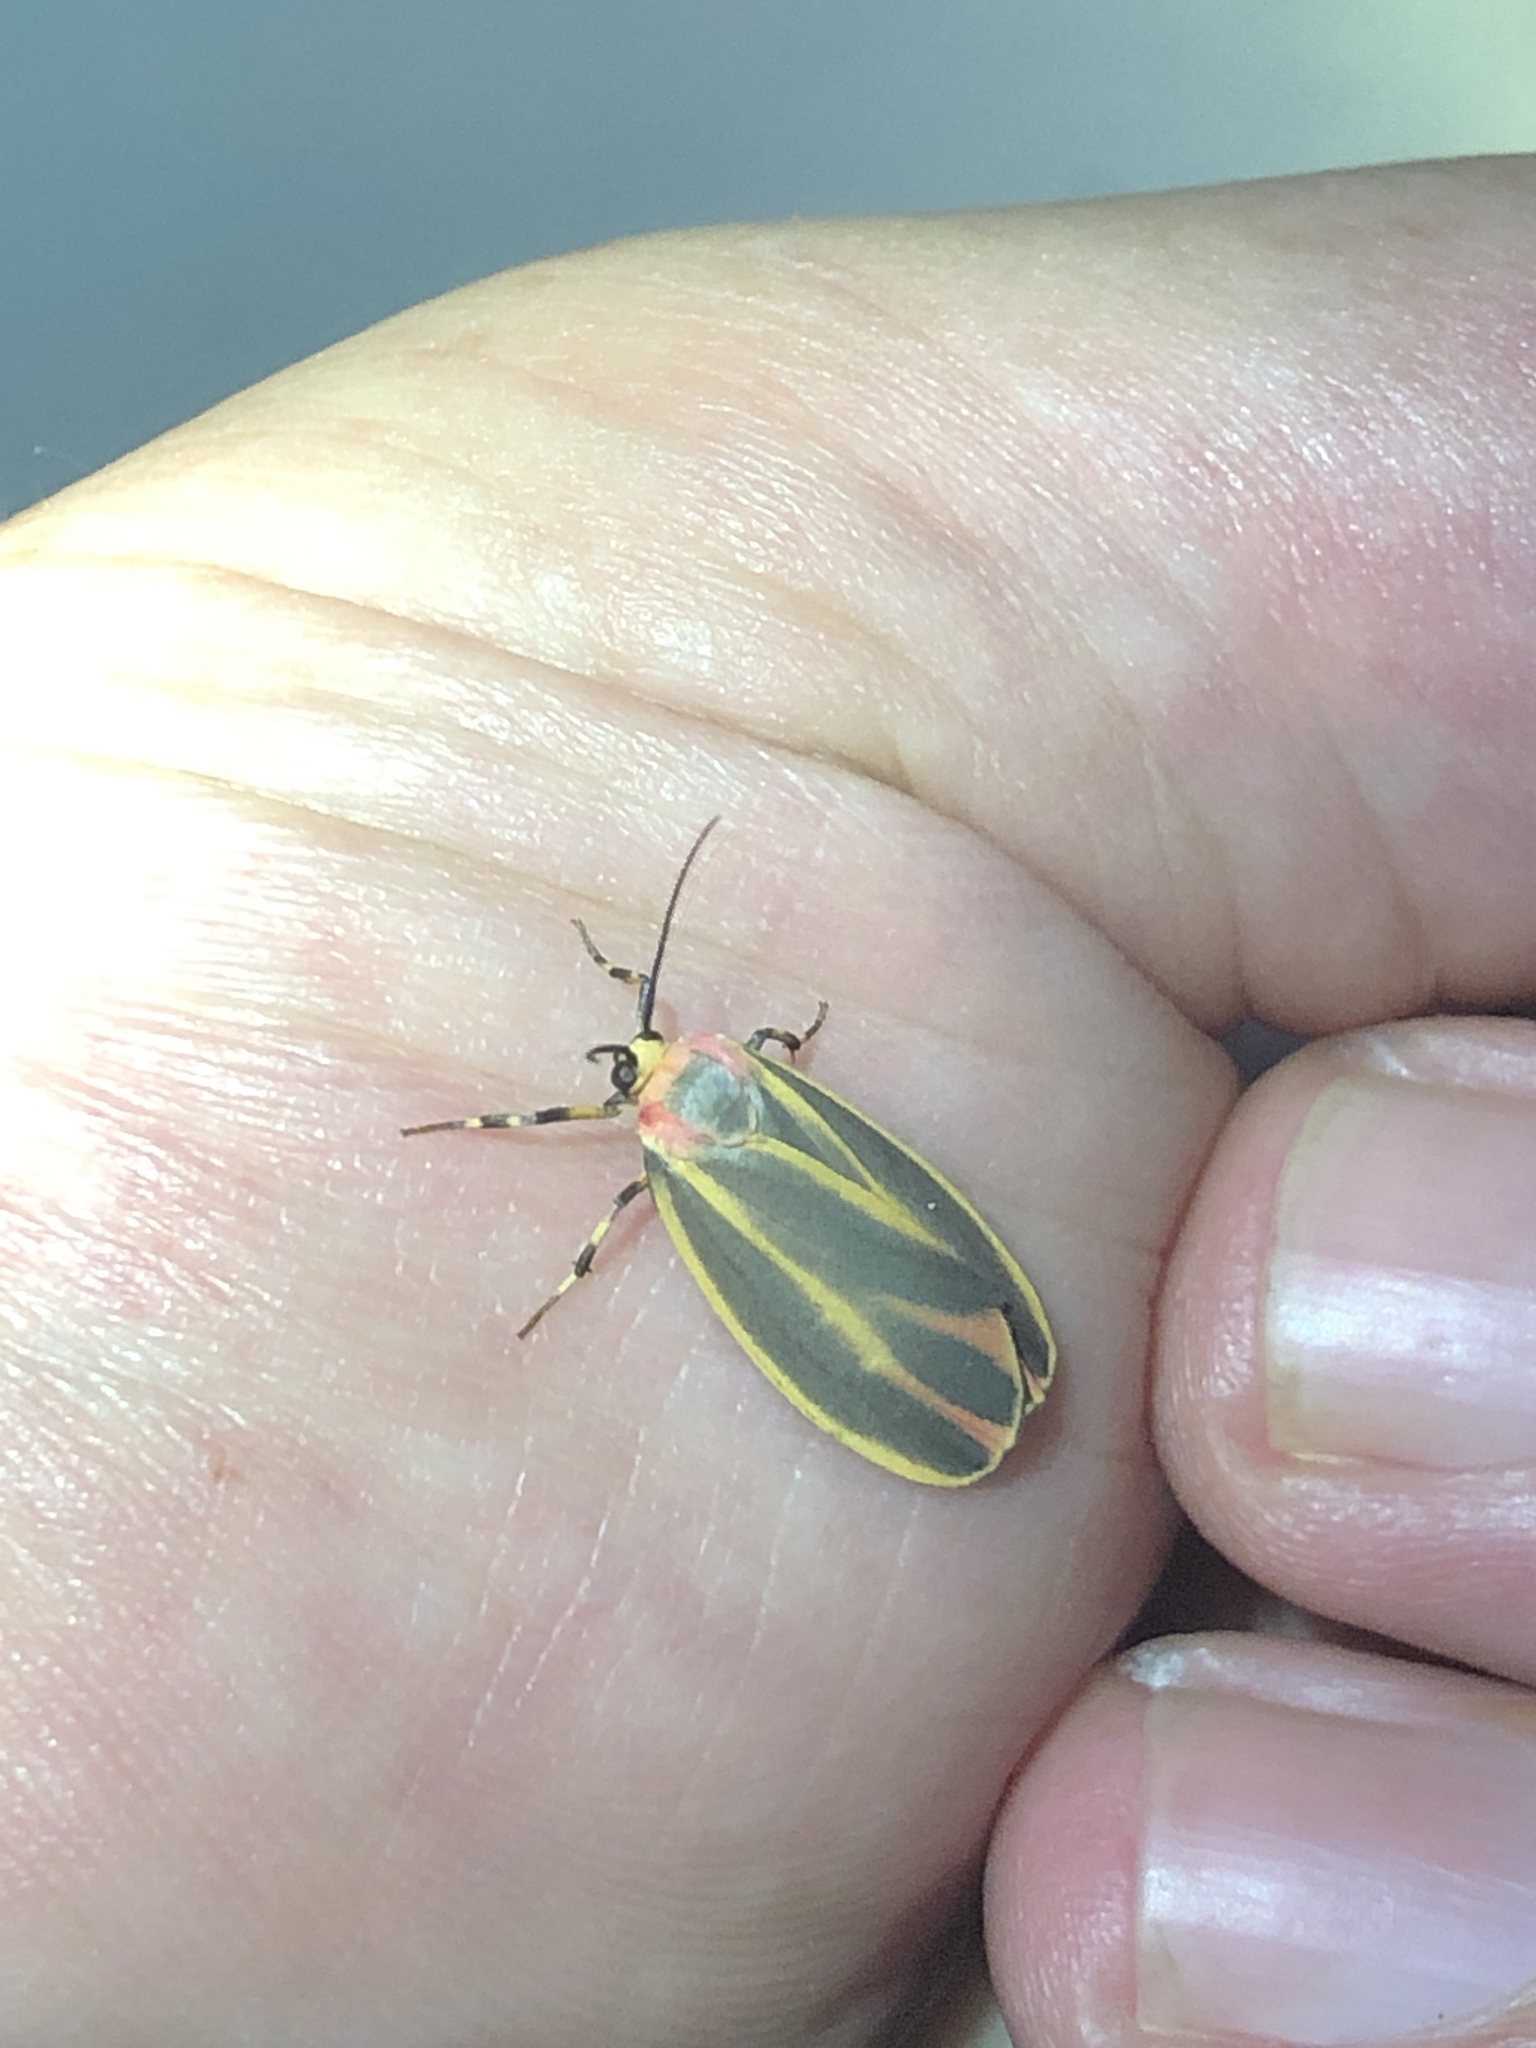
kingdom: Animalia
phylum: Arthropoda
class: Insecta
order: Lepidoptera
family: Erebidae
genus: Hypoprepia
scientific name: Hypoprepia fucosa
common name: Painted lichen moth
